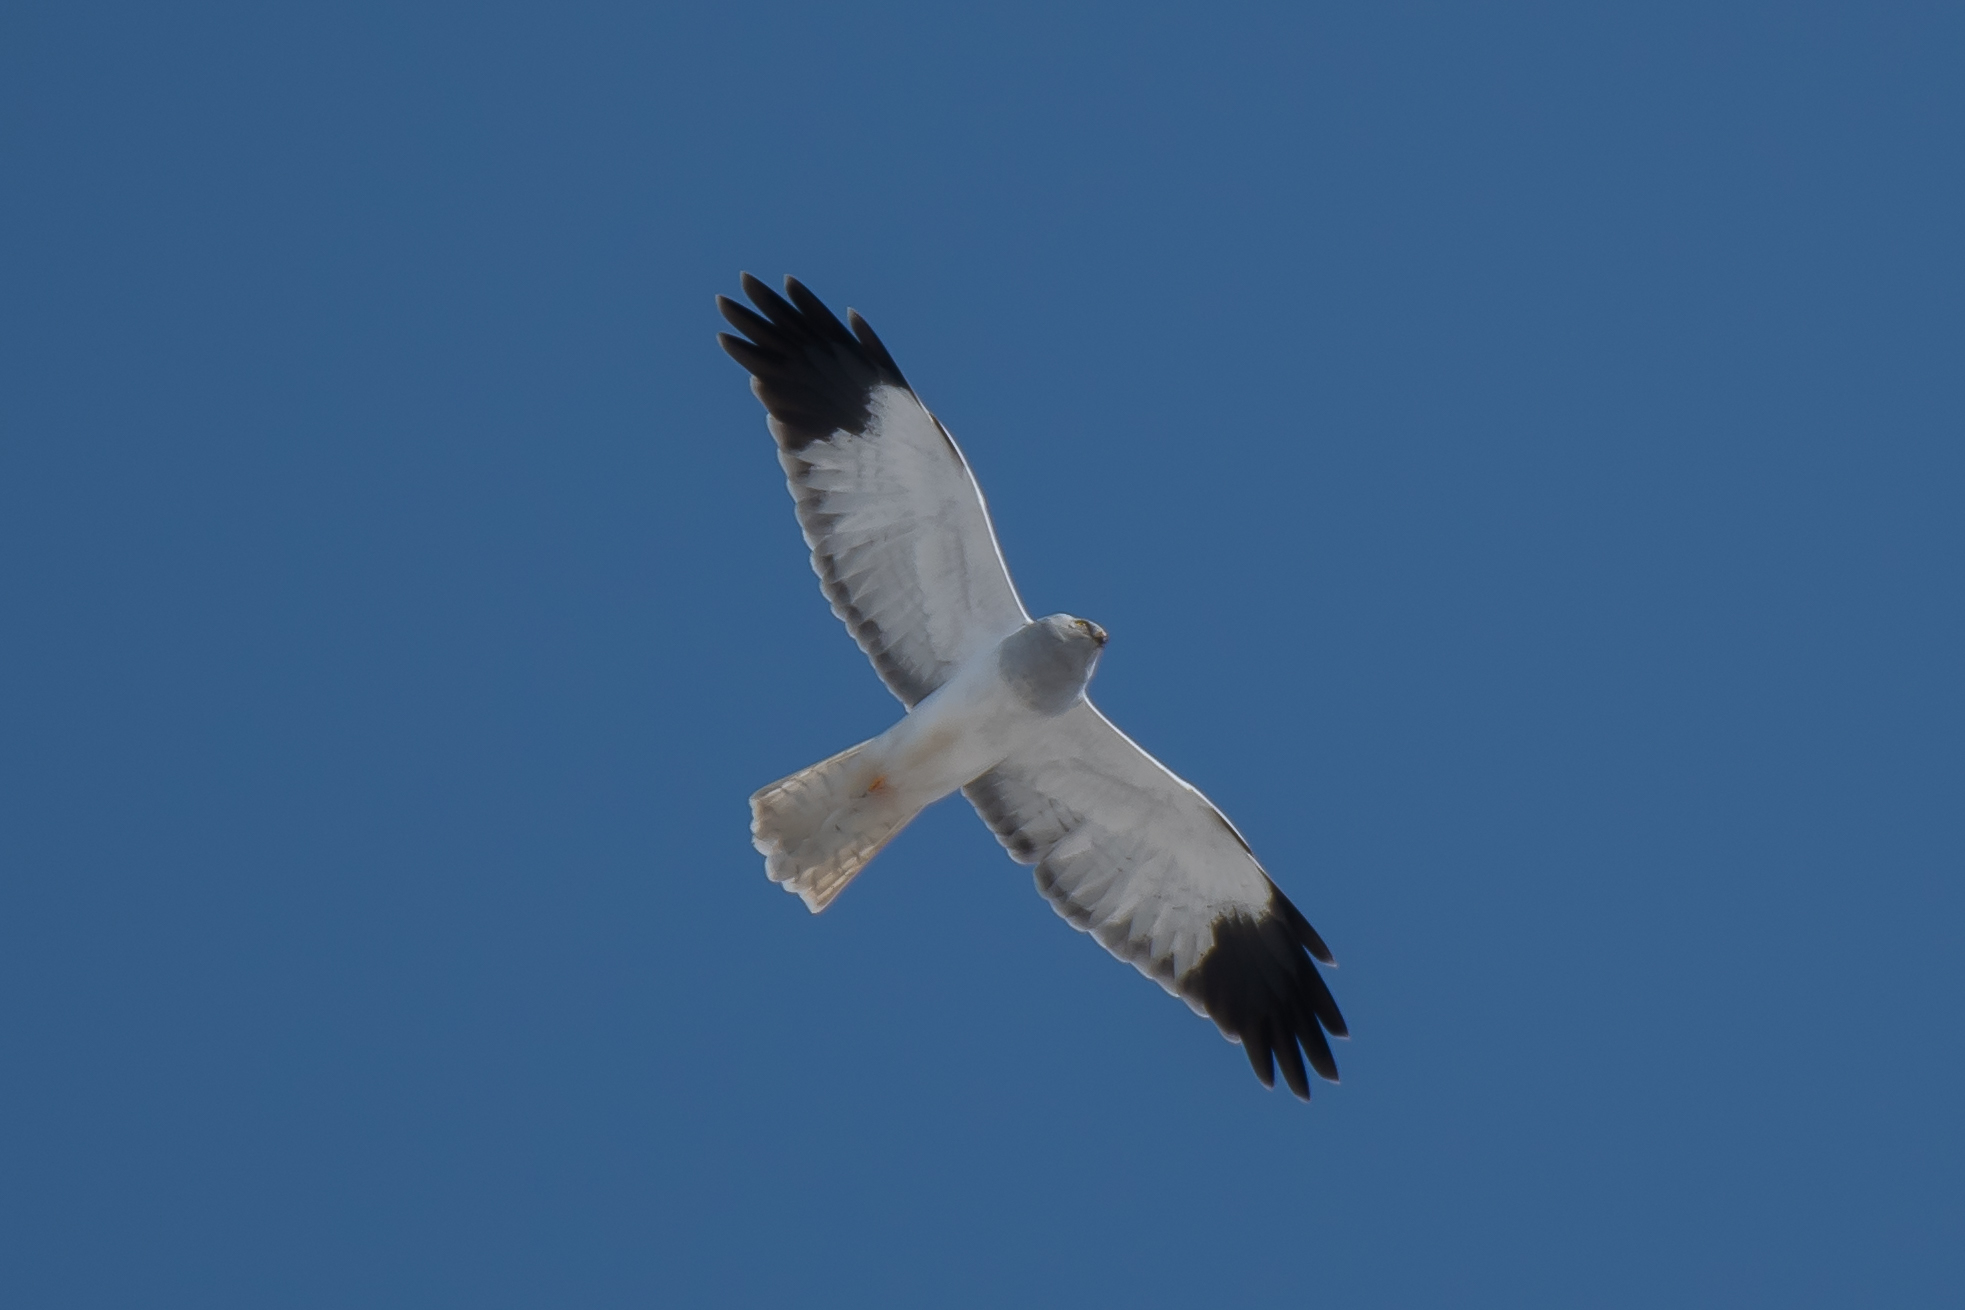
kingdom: Animalia
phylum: Chordata
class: Aves
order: Accipitriformes
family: Accipitridae
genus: Circus
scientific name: Circus cyaneus
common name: Hen harrier
